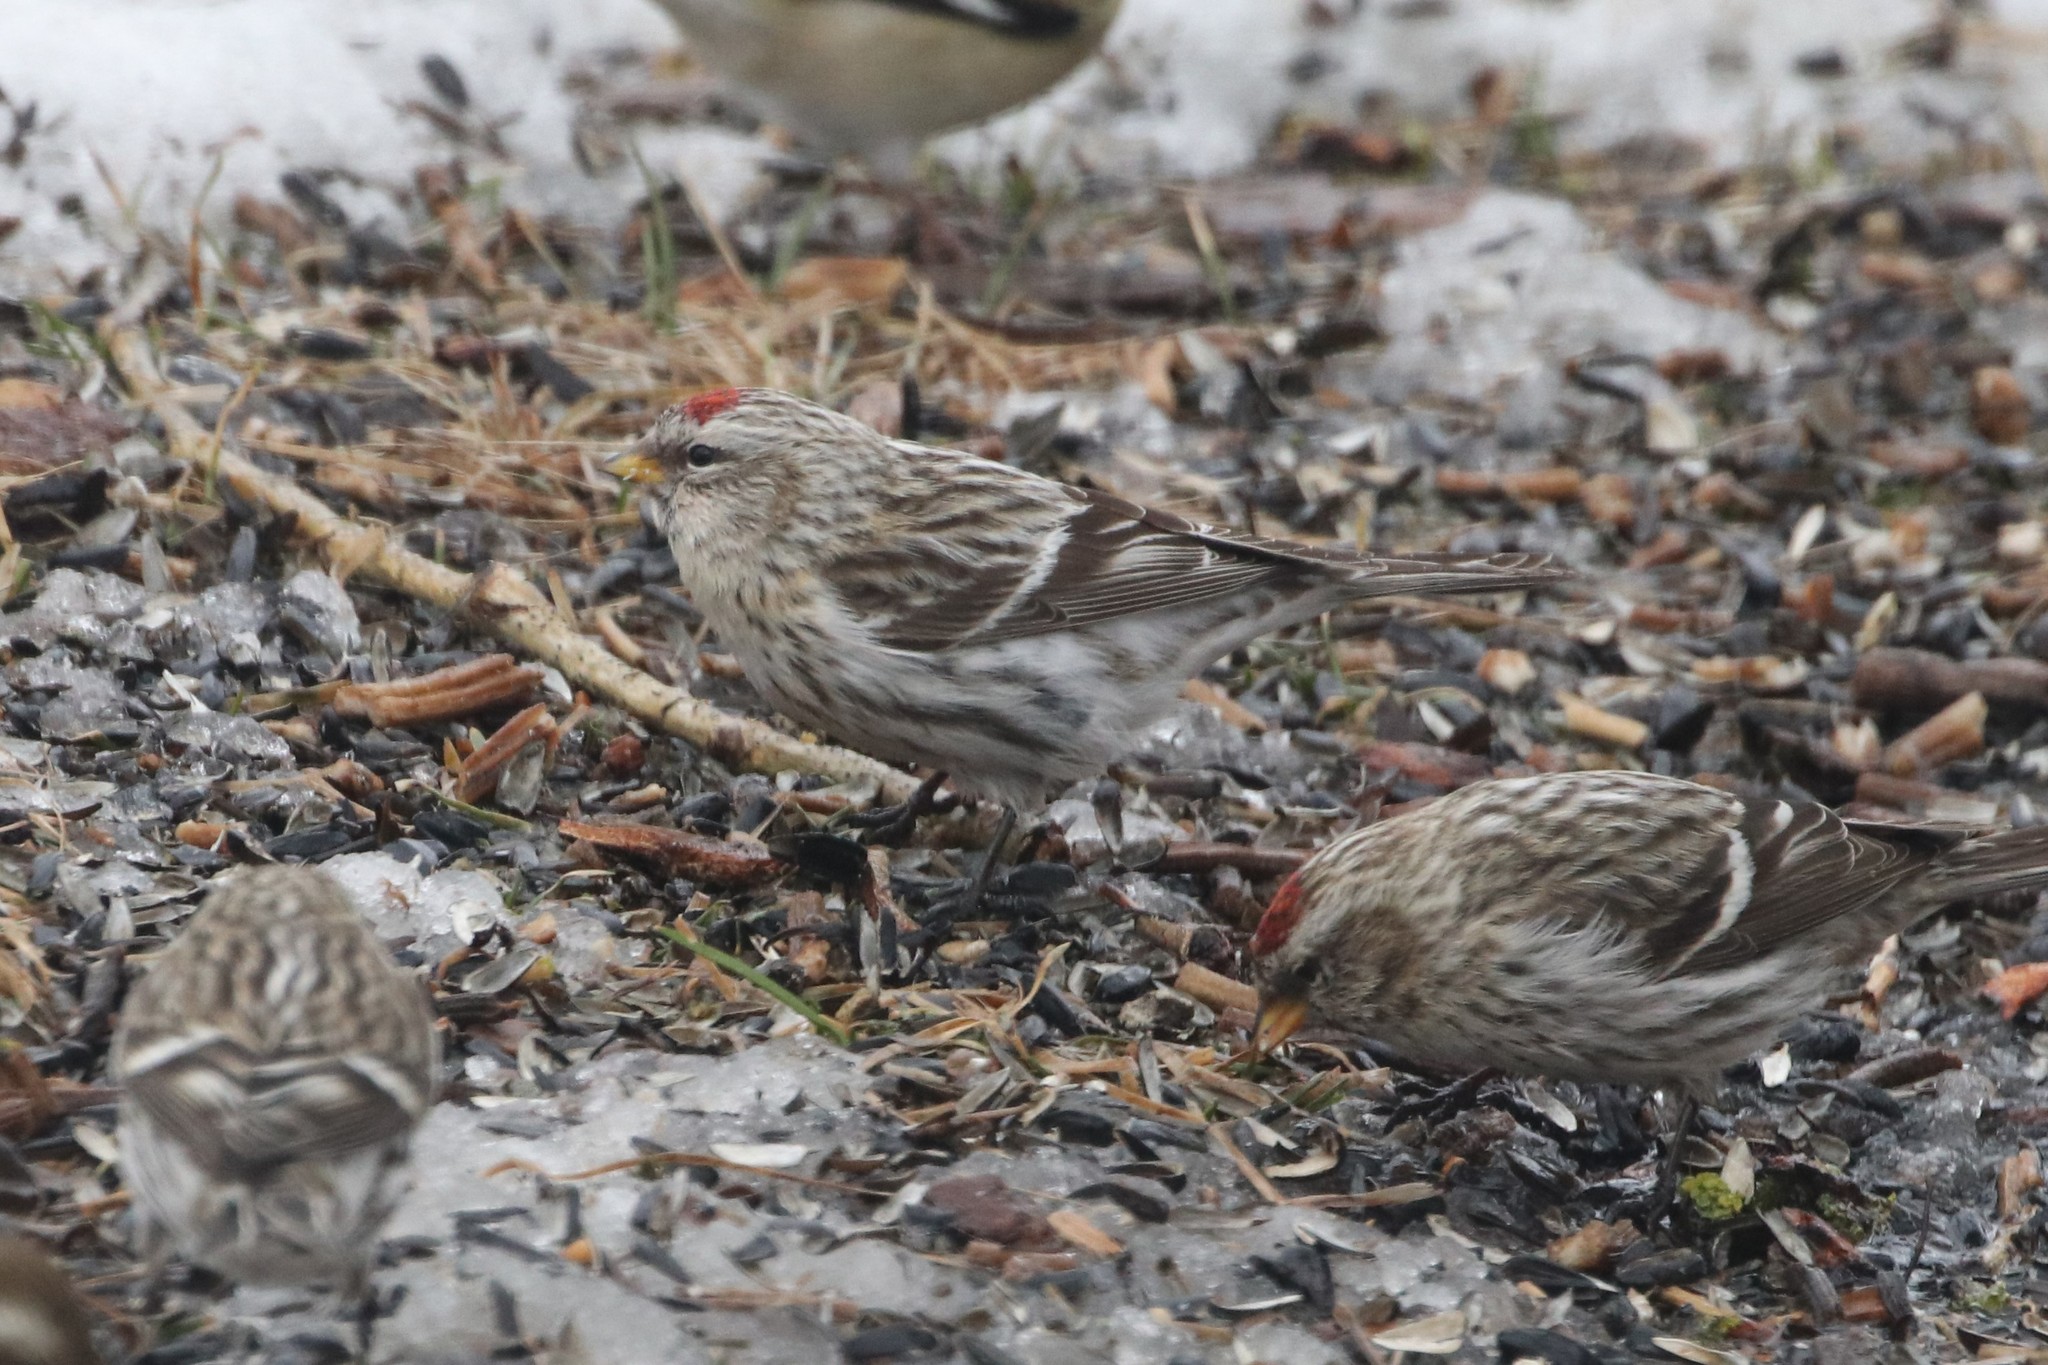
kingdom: Animalia
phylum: Chordata
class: Aves
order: Passeriformes
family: Fringillidae
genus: Acanthis
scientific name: Acanthis flammea
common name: Common redpoll
